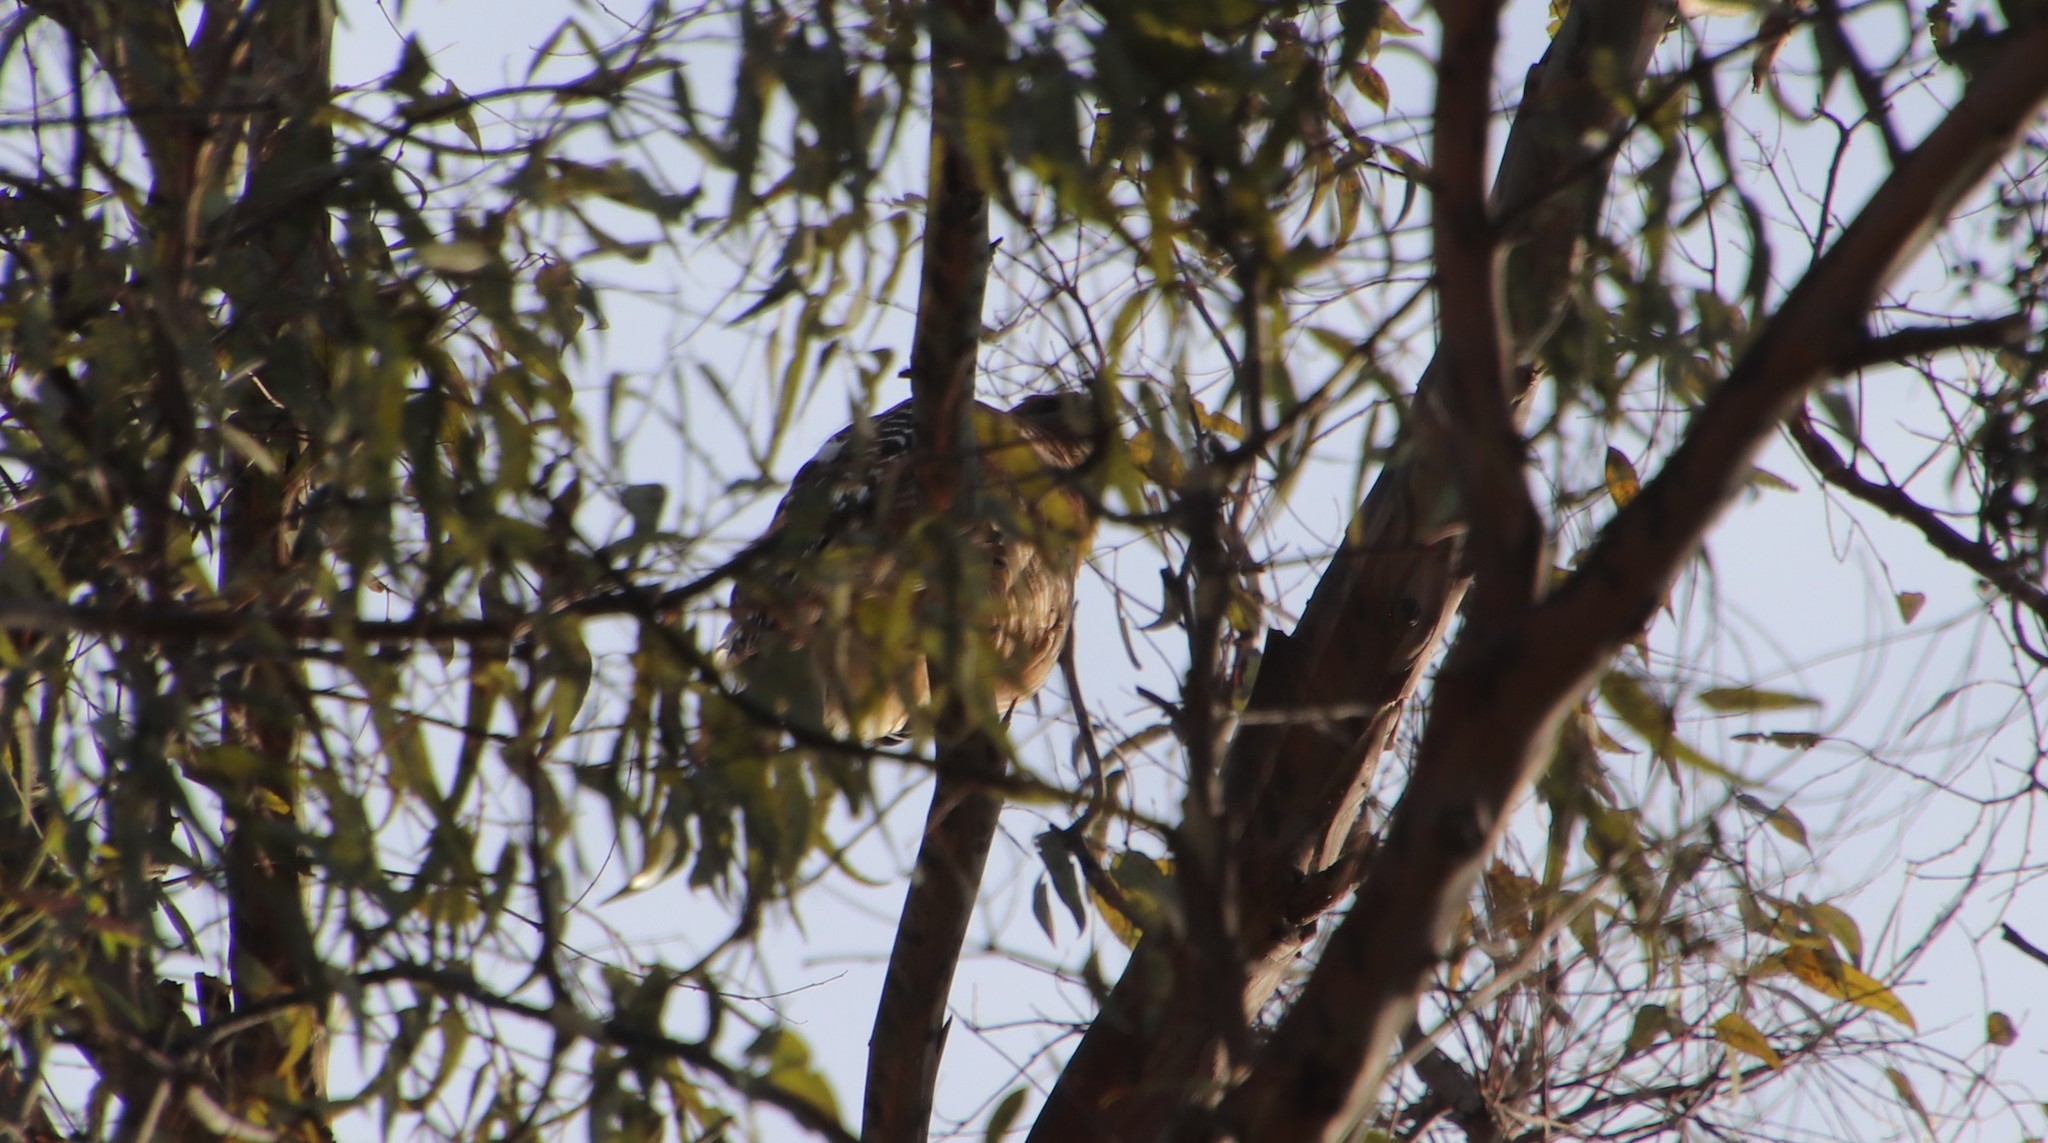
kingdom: Animalia
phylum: Chordata
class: Aves
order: Accipitriformes
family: Accipitridae
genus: Buteo
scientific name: Buteo lineatus
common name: Red-shouldered hawk
